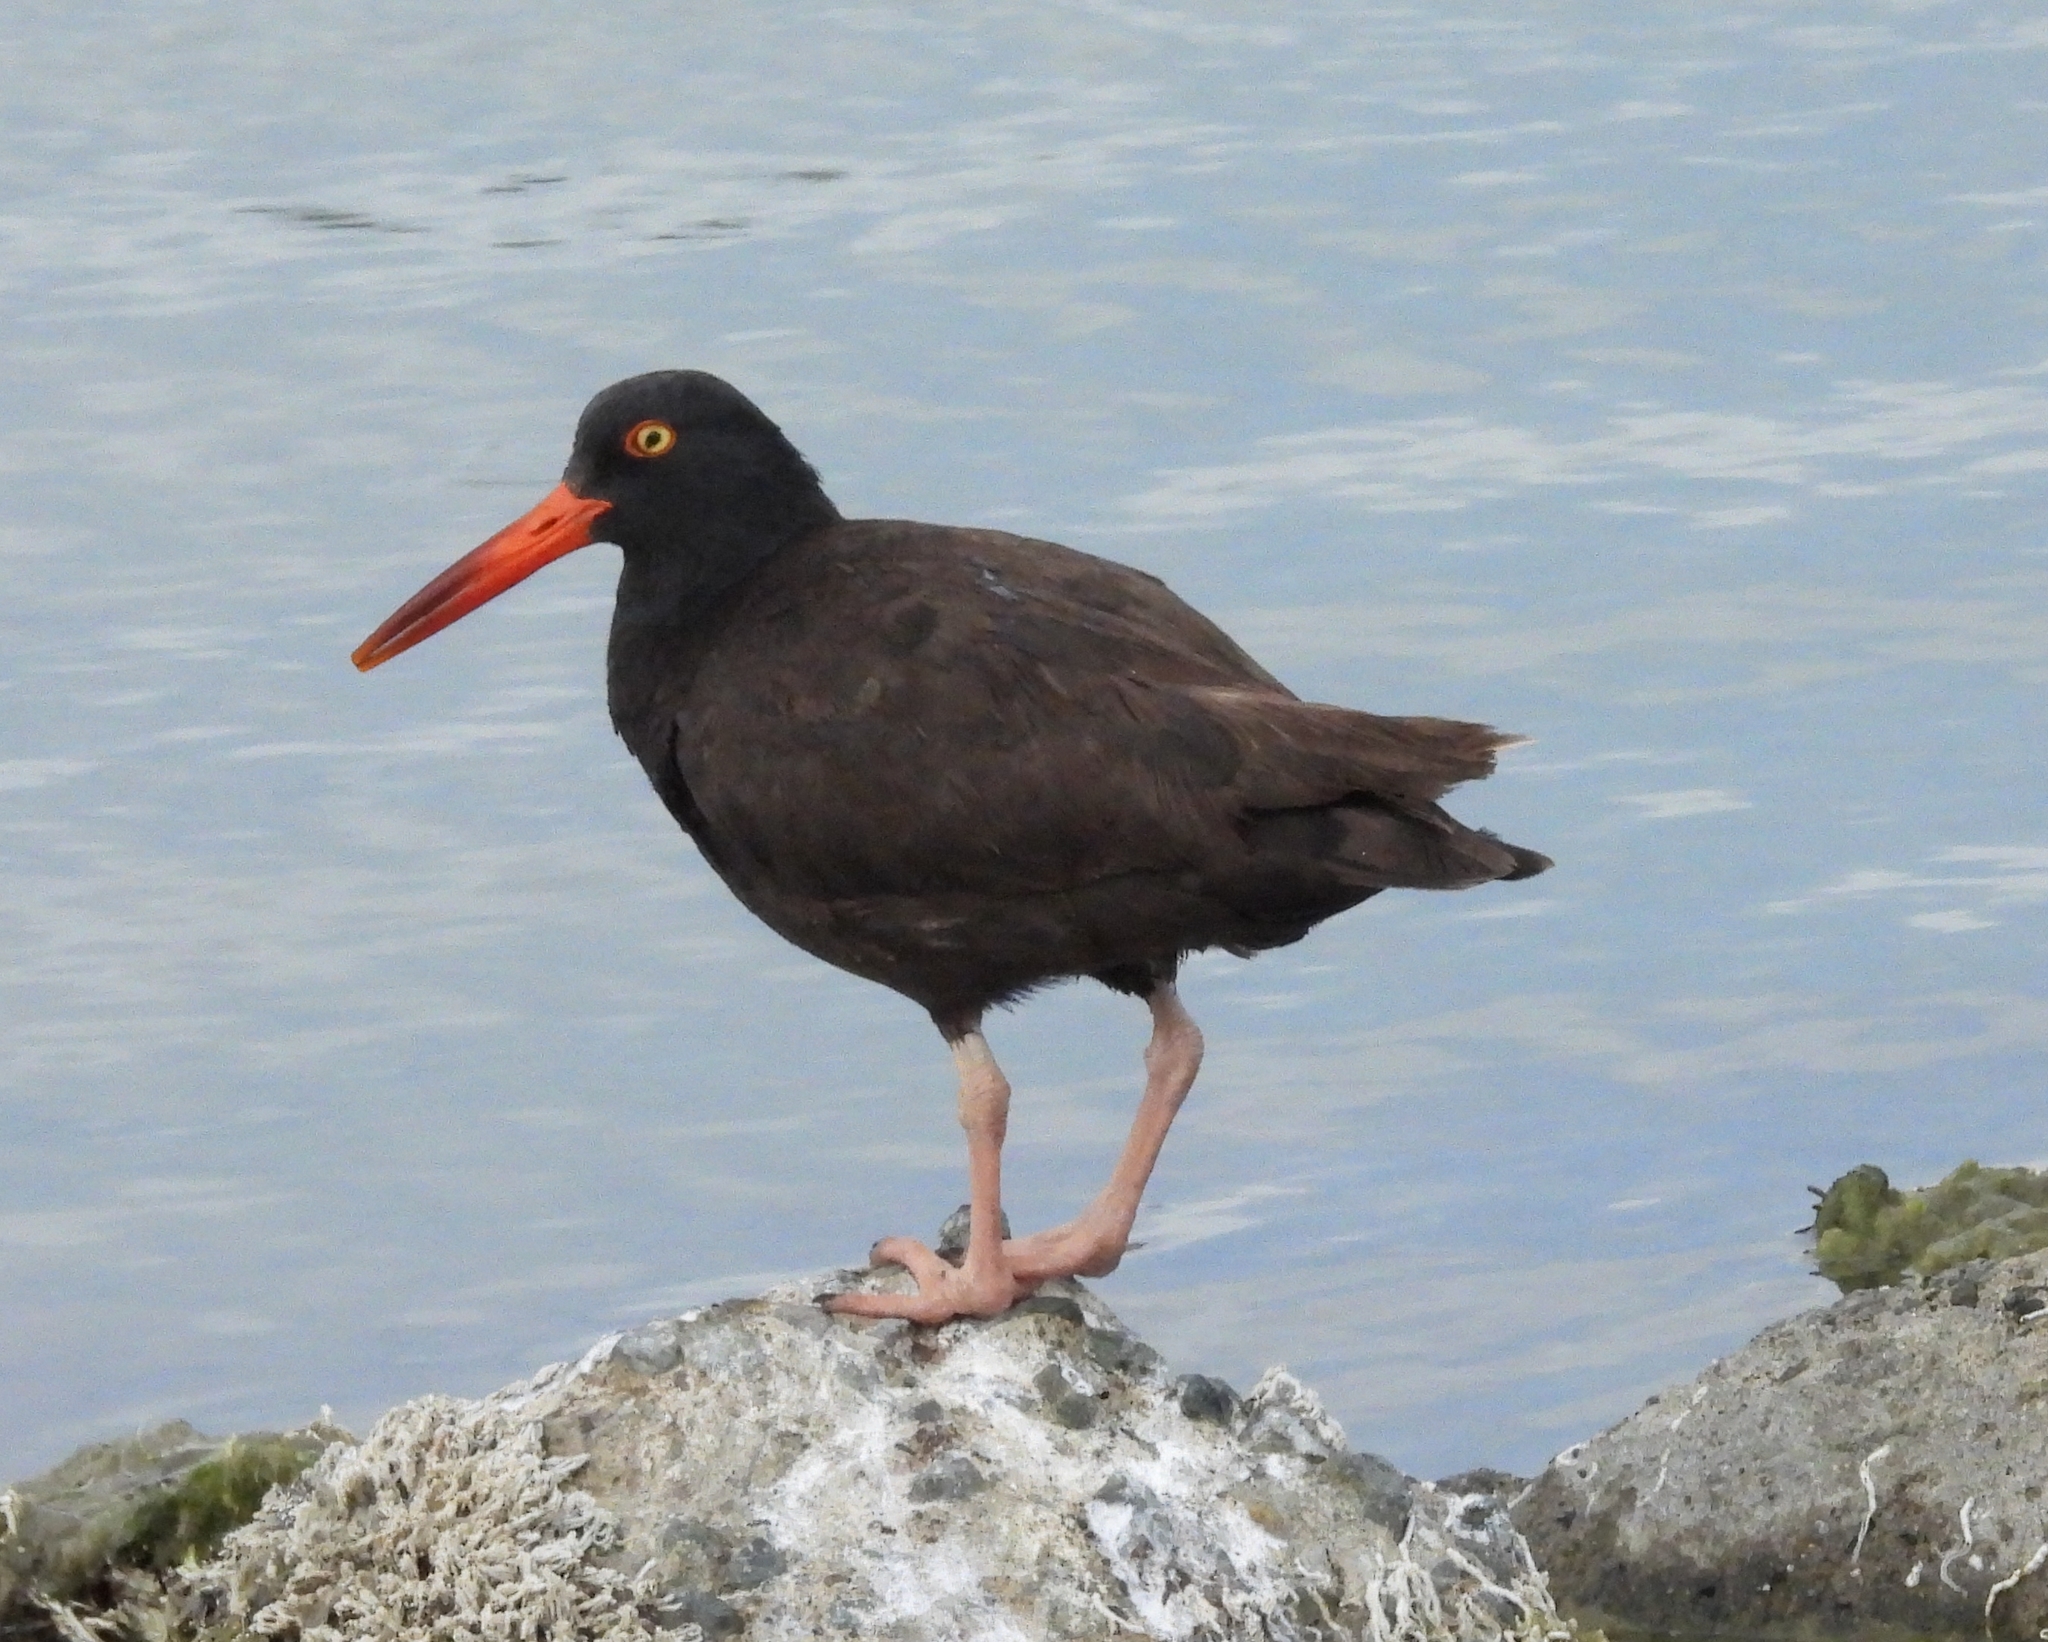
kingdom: Animalia
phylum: Chordata
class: Aves
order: Charadriiformes
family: Haematopodidae
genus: Haematopus
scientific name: Haematopus bachmani
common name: Black oystercatcher
